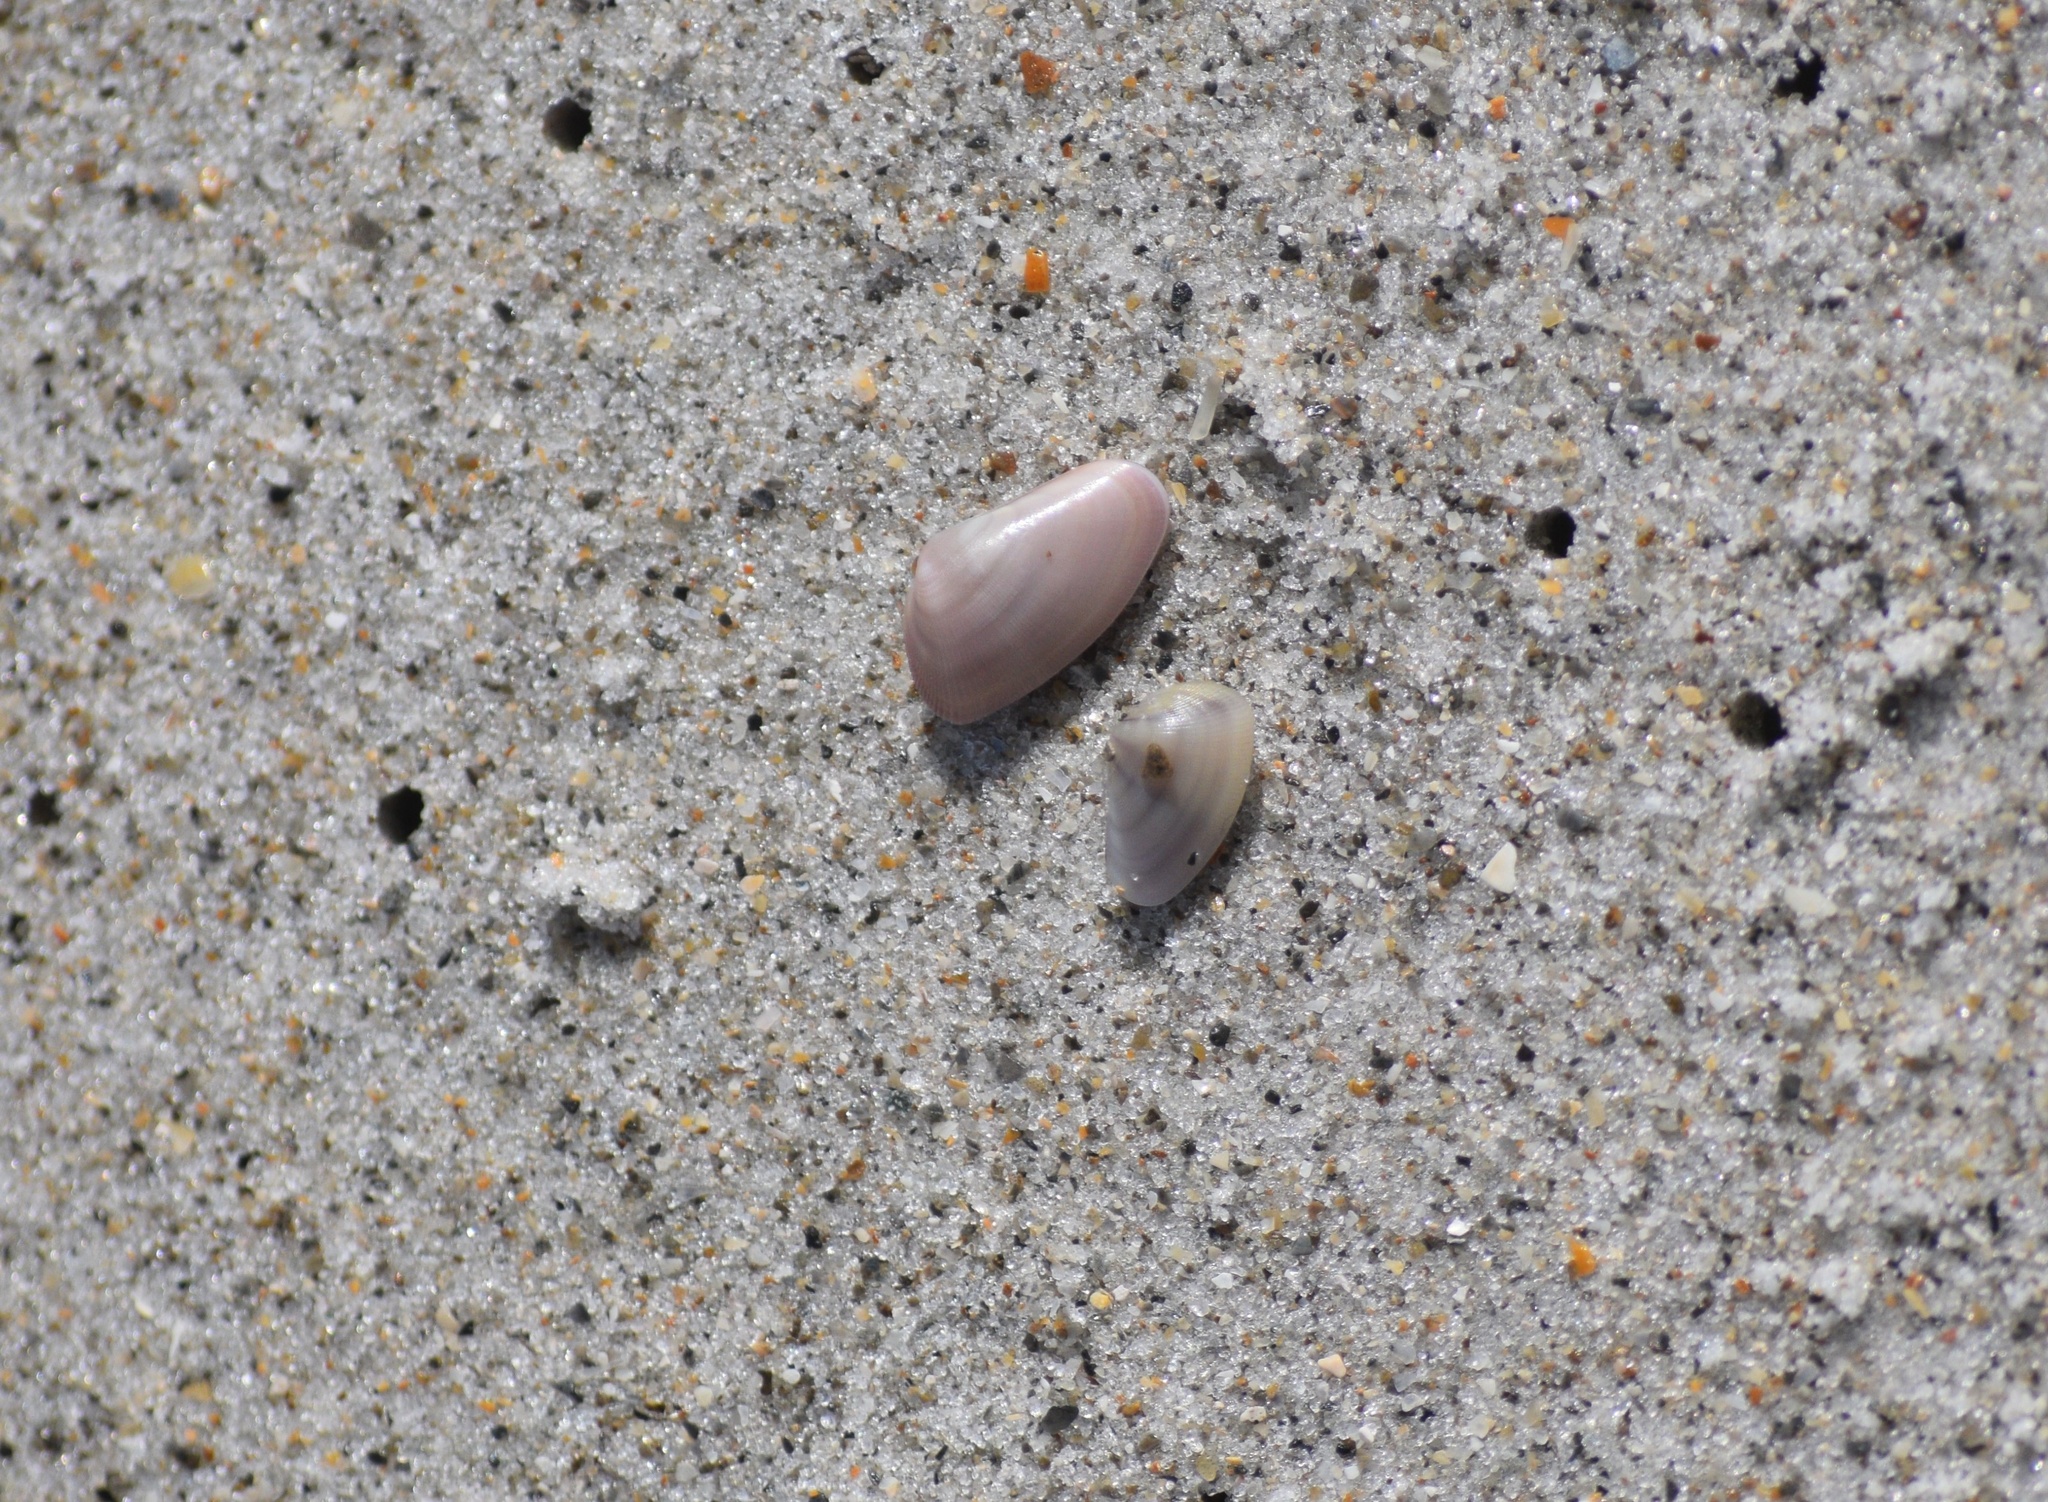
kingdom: Animalia
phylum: Mollusca
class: Bivalvia
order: Cardiida
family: Donacidae
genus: Donax
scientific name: Donax variabilis
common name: Butterfly shell
